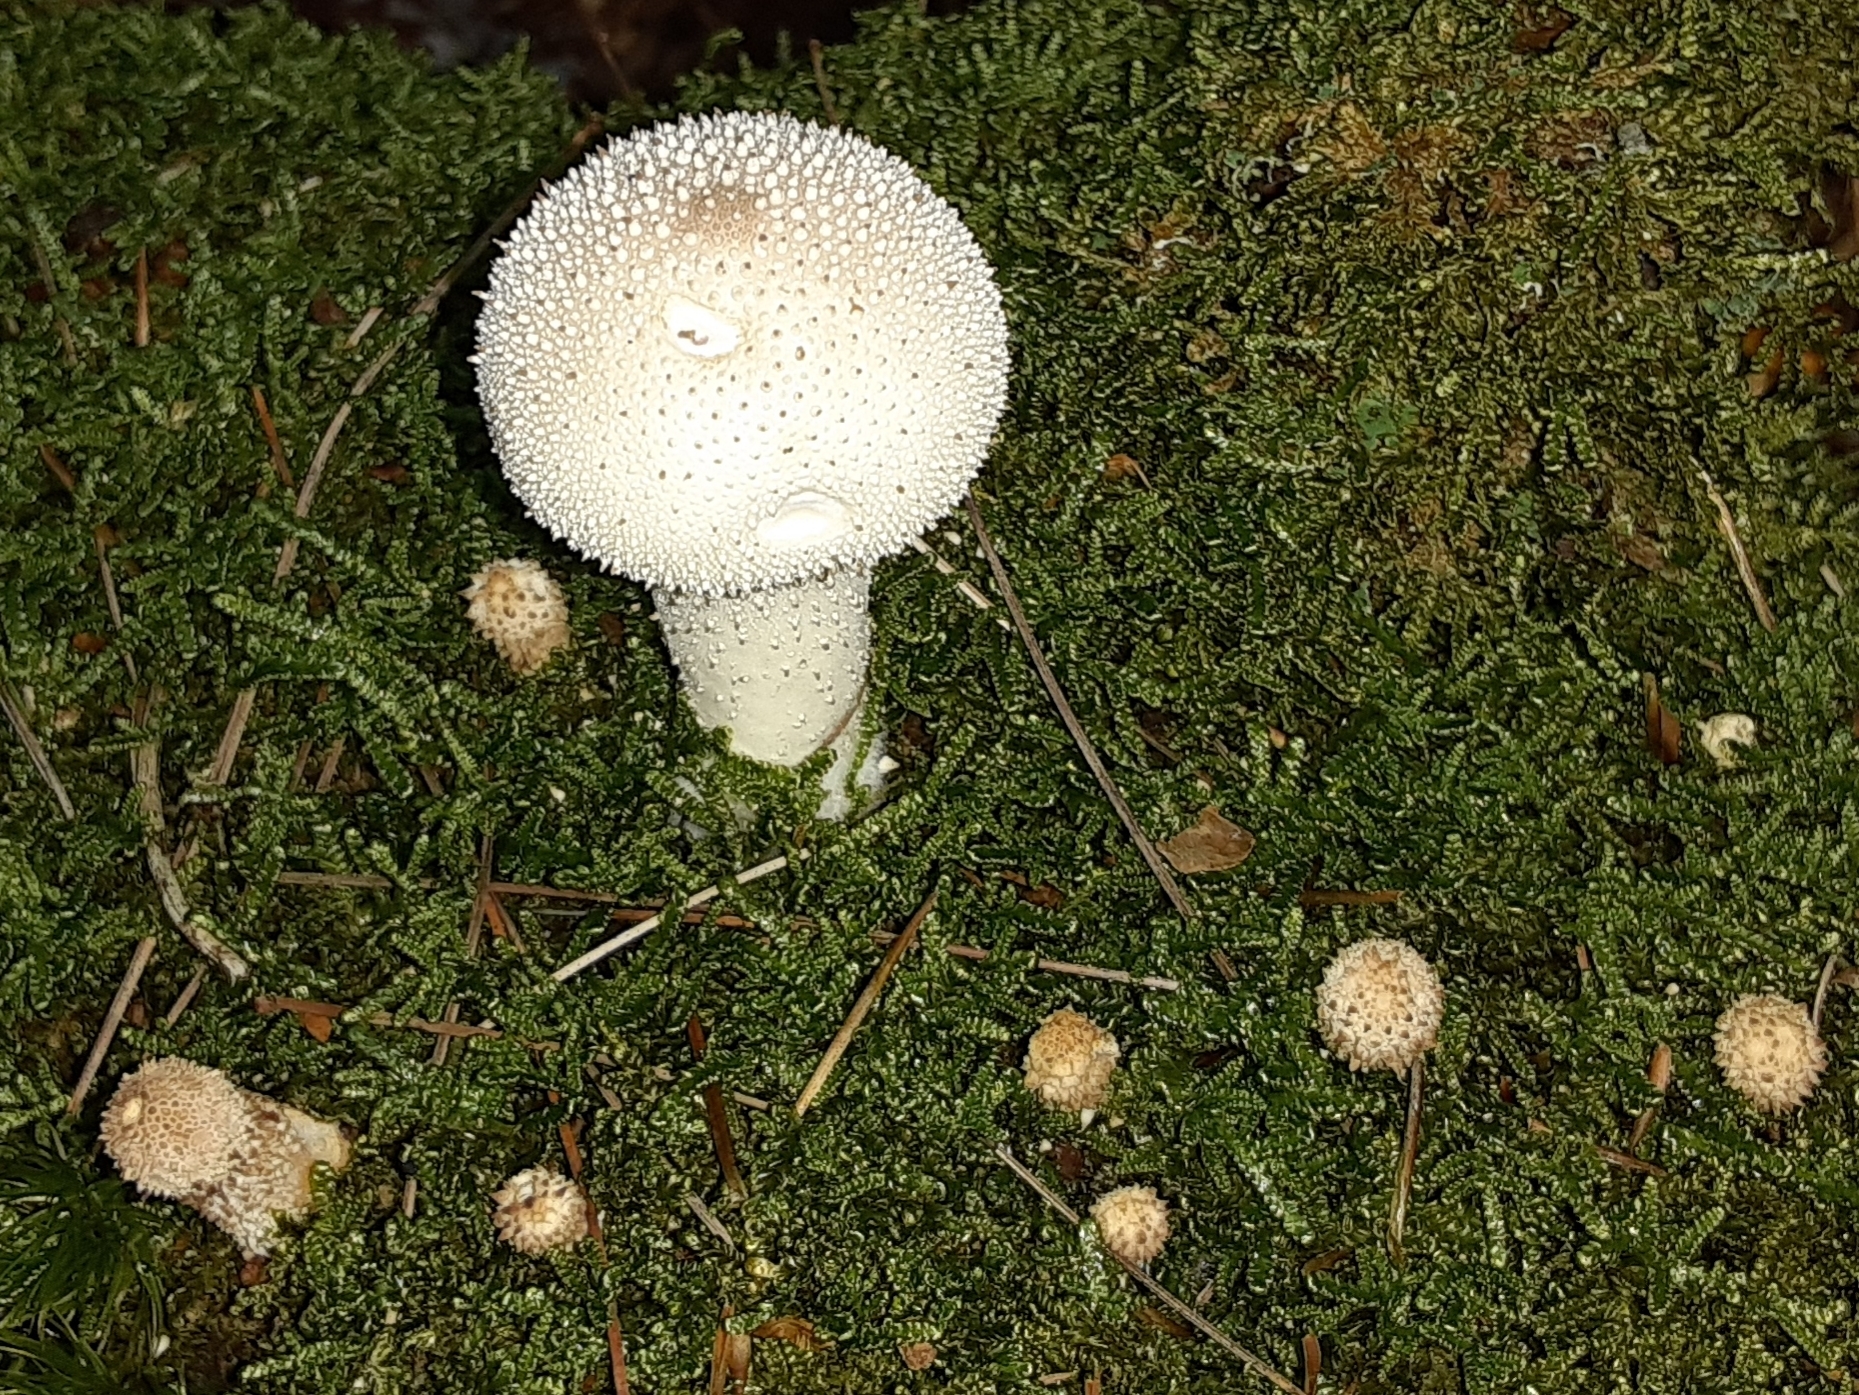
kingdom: Fungi
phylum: Basidiomycota
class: Agaricomycetes
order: Agaricales
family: Lycoperdaceae
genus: Lycoperdon
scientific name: Lycoperdon perlatum
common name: Common puffball
